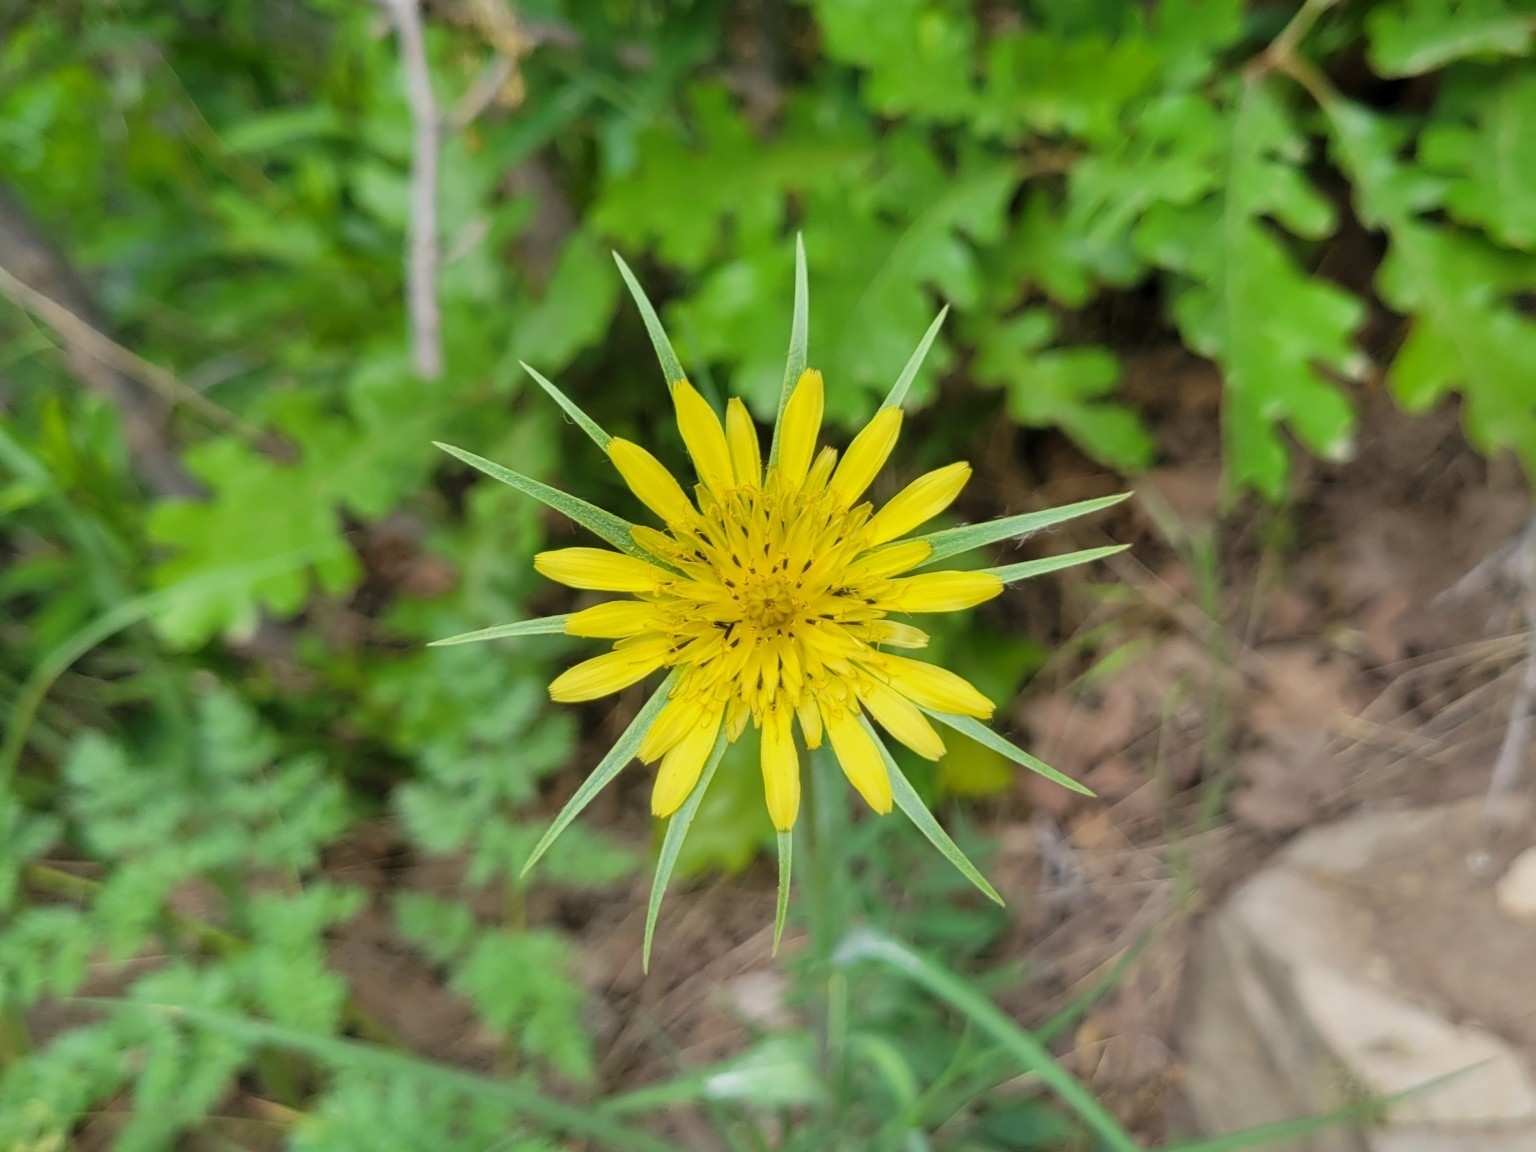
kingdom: Plantae
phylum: Tracheophyta
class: Magnoliopsida
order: Asterales
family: Asteraceae
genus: Tragopogon
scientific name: Tragopogon dubius
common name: Yellow salsify
